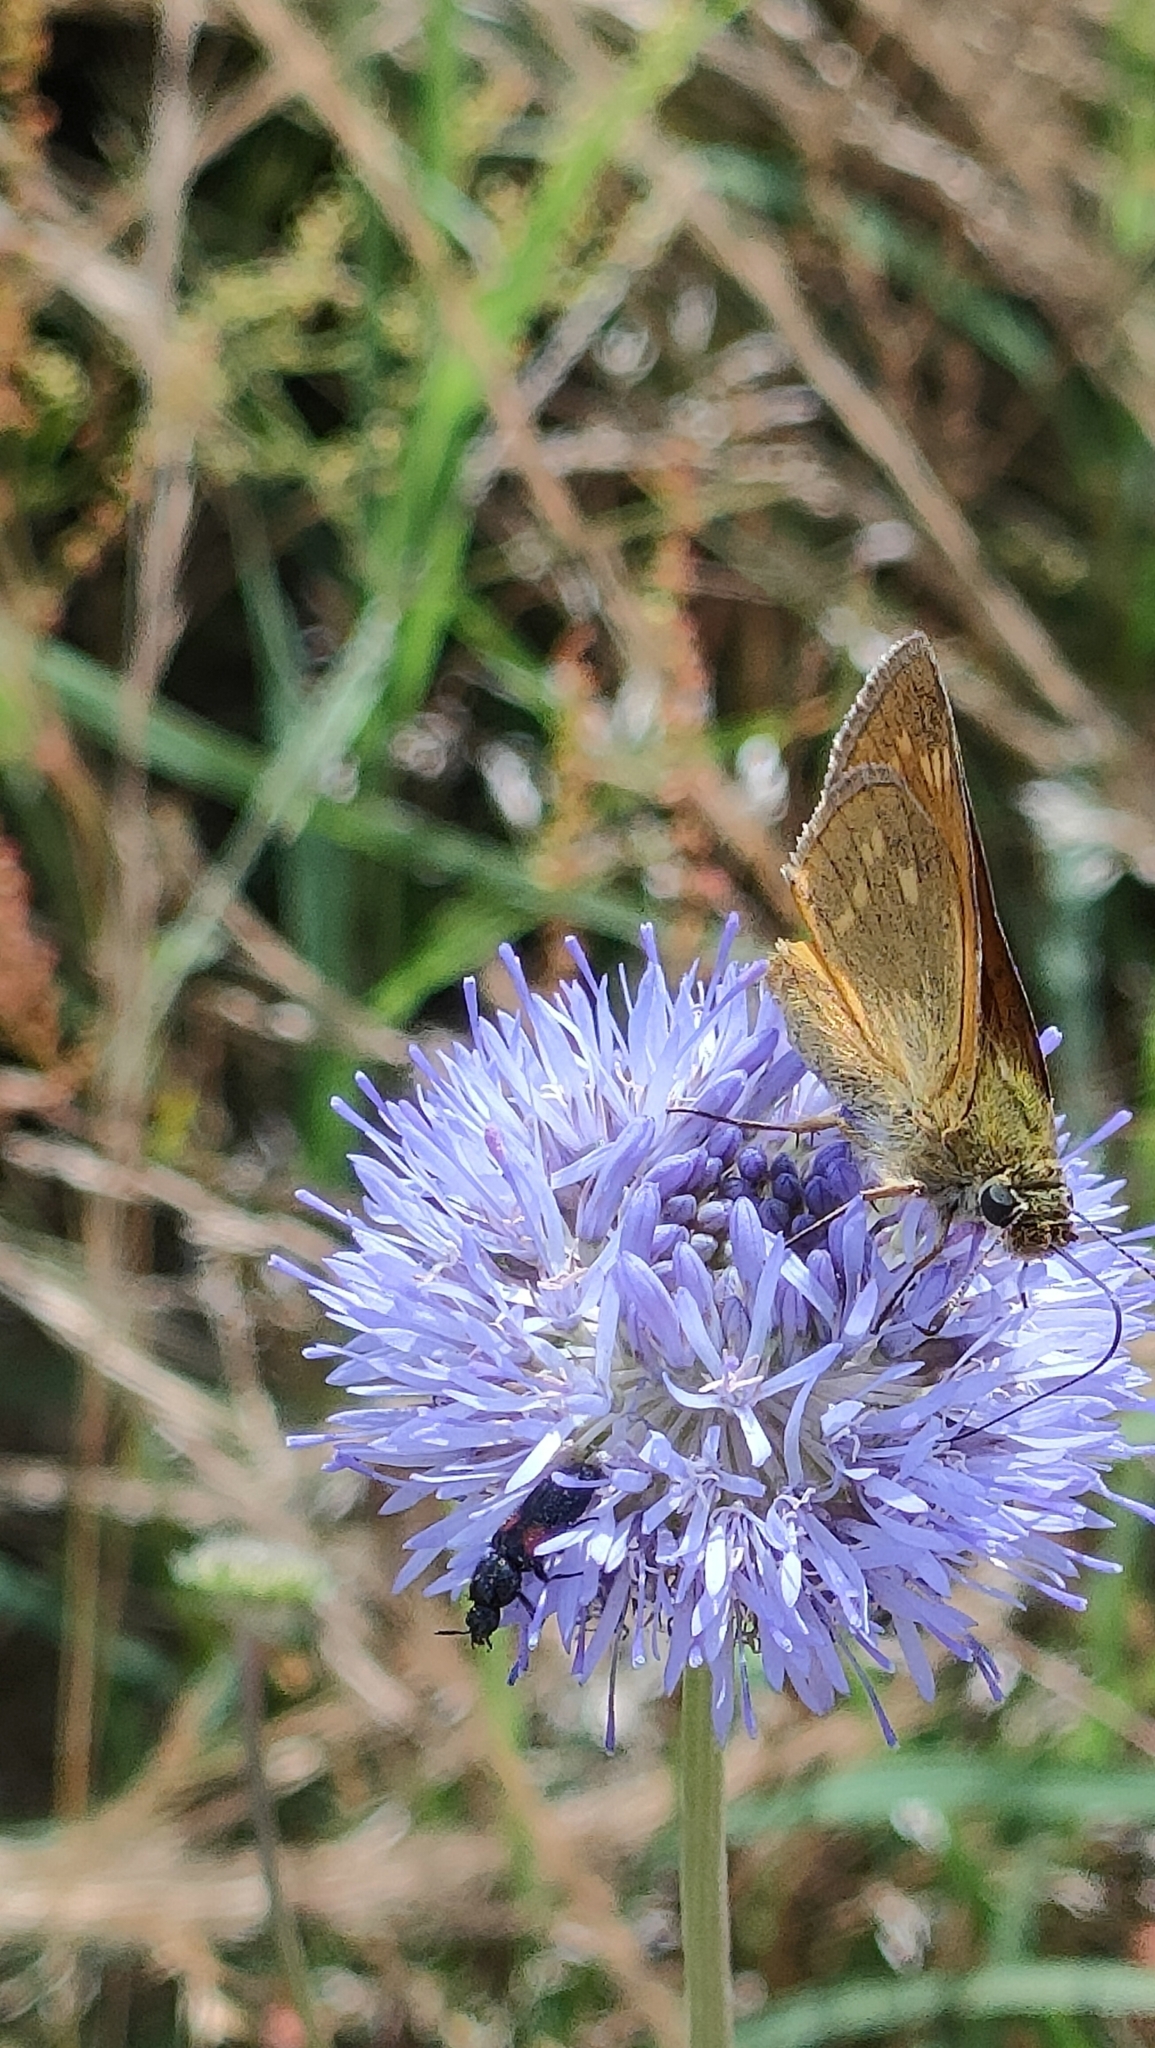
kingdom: Animalia
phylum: Arthropoda
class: Insecta
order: Lepidoptera
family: Hesperiidae
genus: Ochlodes
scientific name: Ochlodes venata
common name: Large skipper
